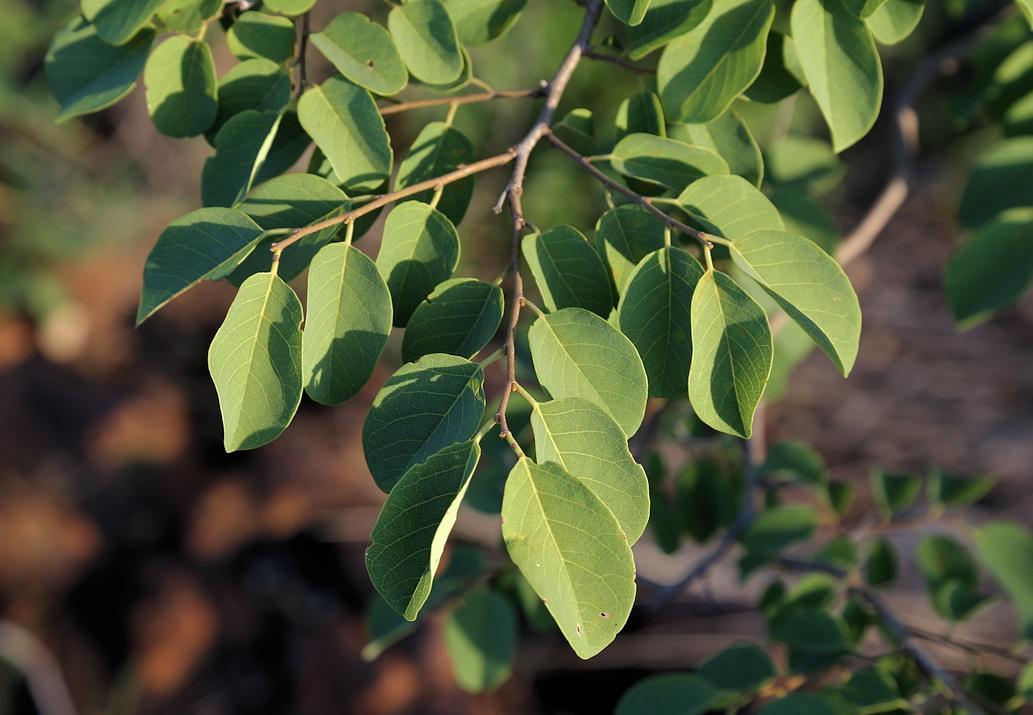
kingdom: Plantae
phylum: Tracheophyta
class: Magnoliopsida
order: Malpighiales
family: Phyllanthaceae
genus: Pseudolachnostylis
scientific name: Pseudolachnostylis maprouneifolia
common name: Kudu berry
